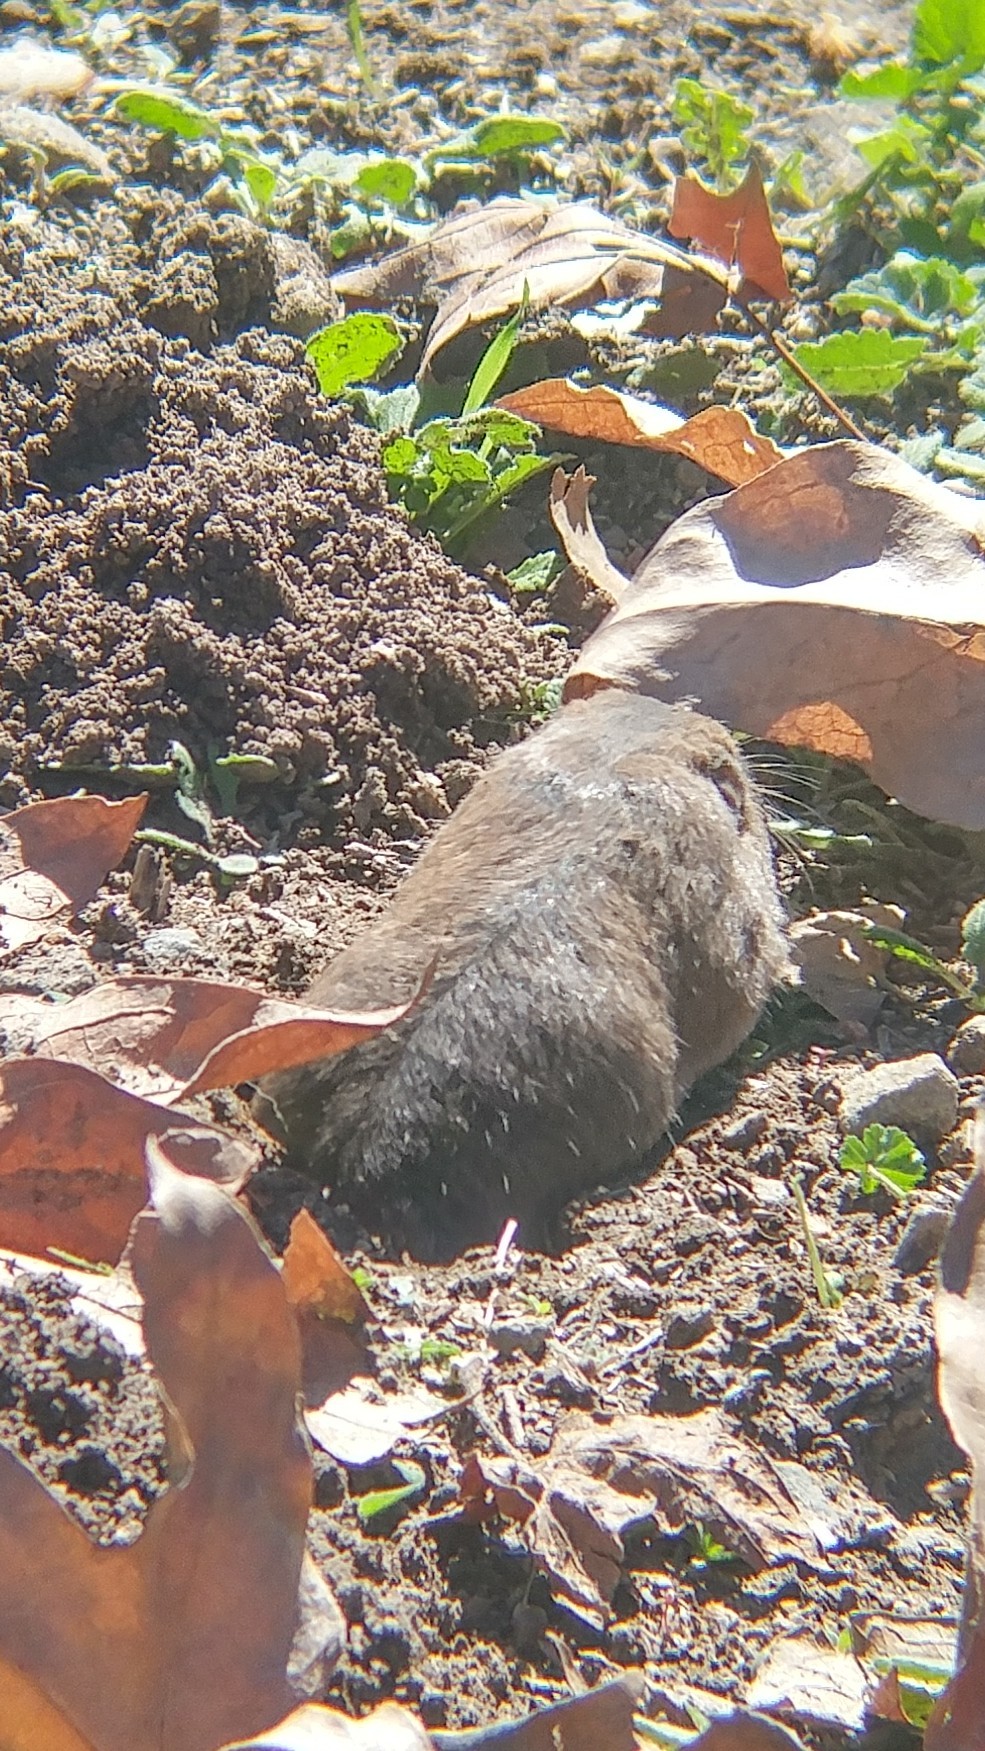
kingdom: Animalia
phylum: Chordata
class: Mammalia
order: Rodentia
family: Geomyidae
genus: Thomomys
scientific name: Thomomys bottae
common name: Botta's pocket gopher
